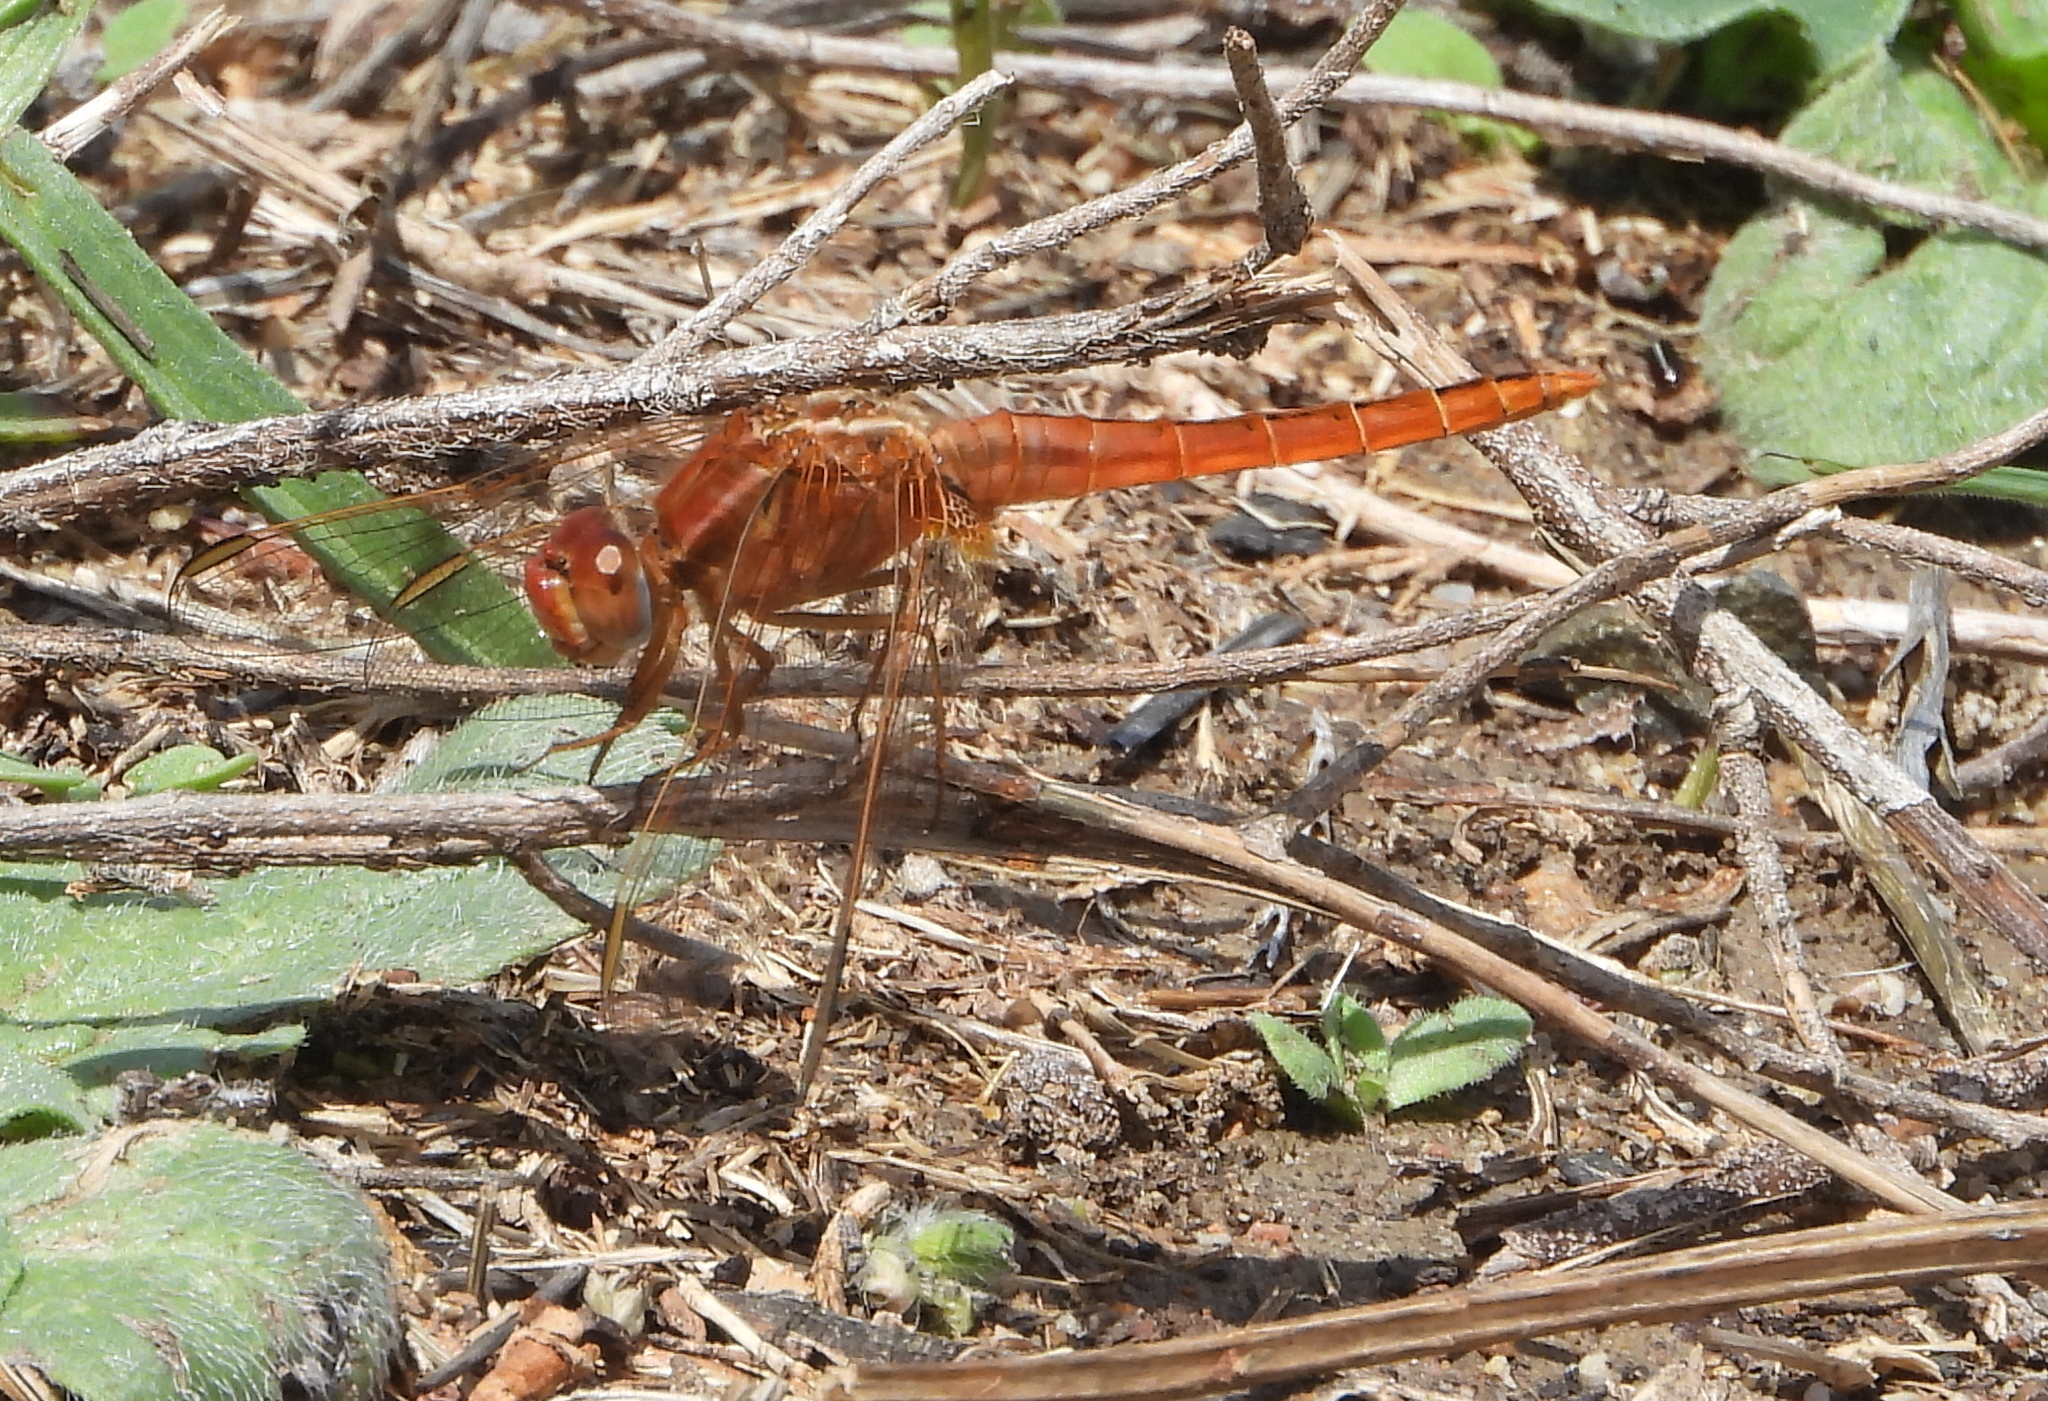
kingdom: Animalia
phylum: Arthropoda
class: Insecta
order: Odonata
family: Libellulidae
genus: Crocothemis
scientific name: Crocothemis erythraea
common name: Scarlet dragonfly
